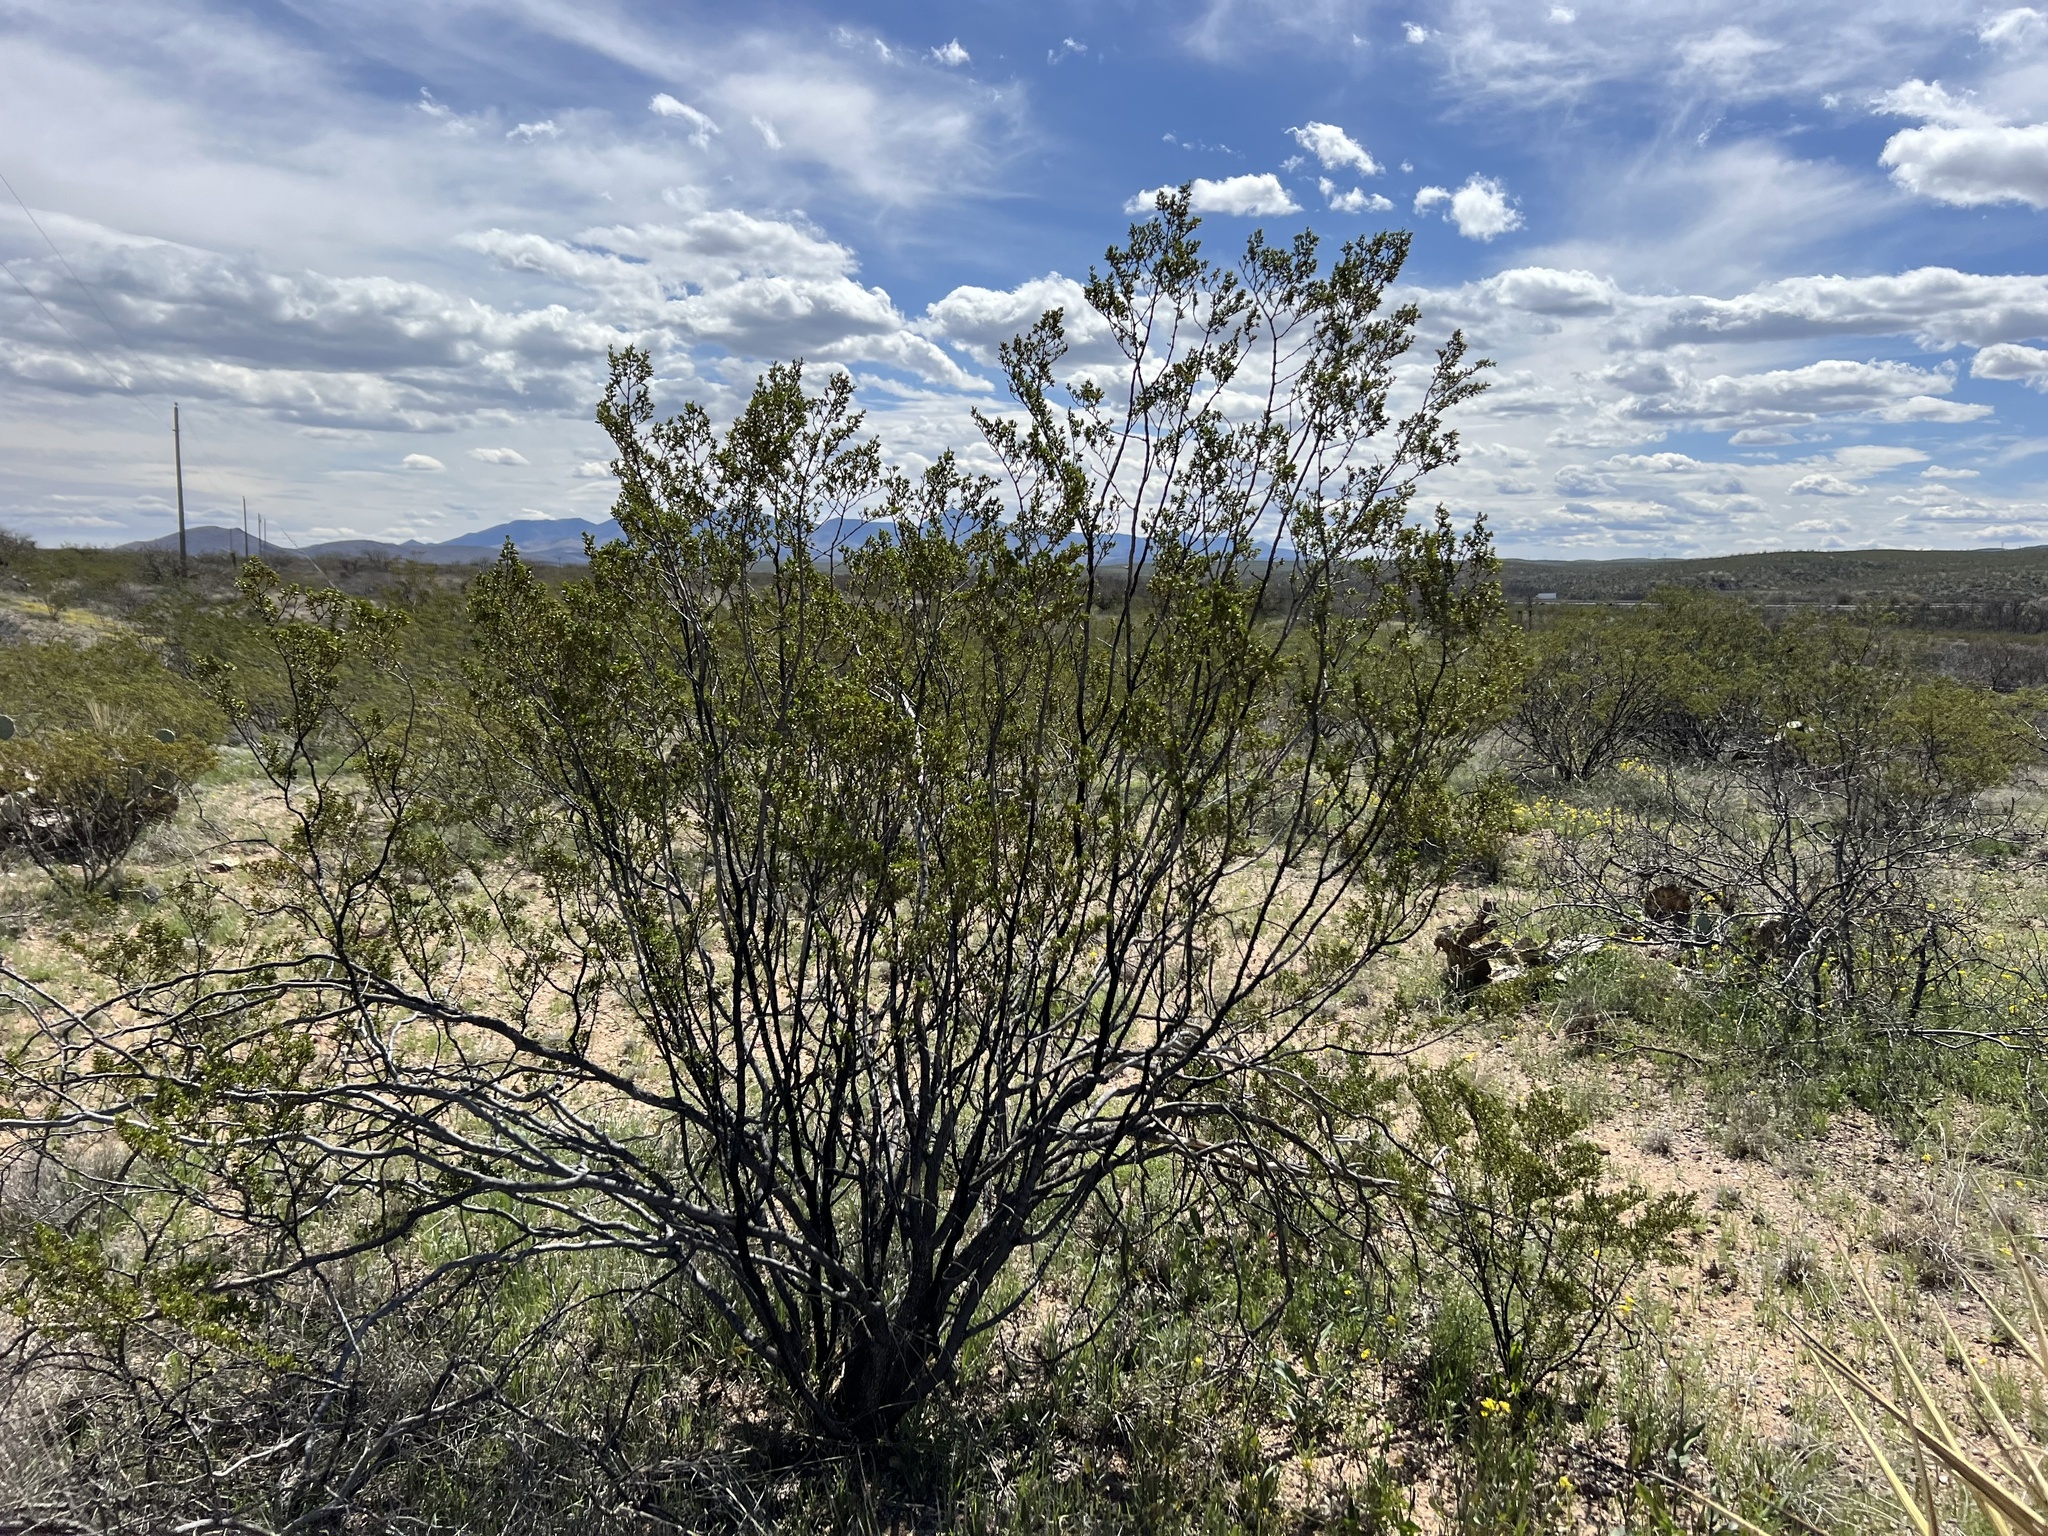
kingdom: Plantae
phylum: Tracheophyta
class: Magnoliopsida
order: Zygophyllales
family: Zygophyllaceae
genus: Larrea
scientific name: Larrea tridentata
